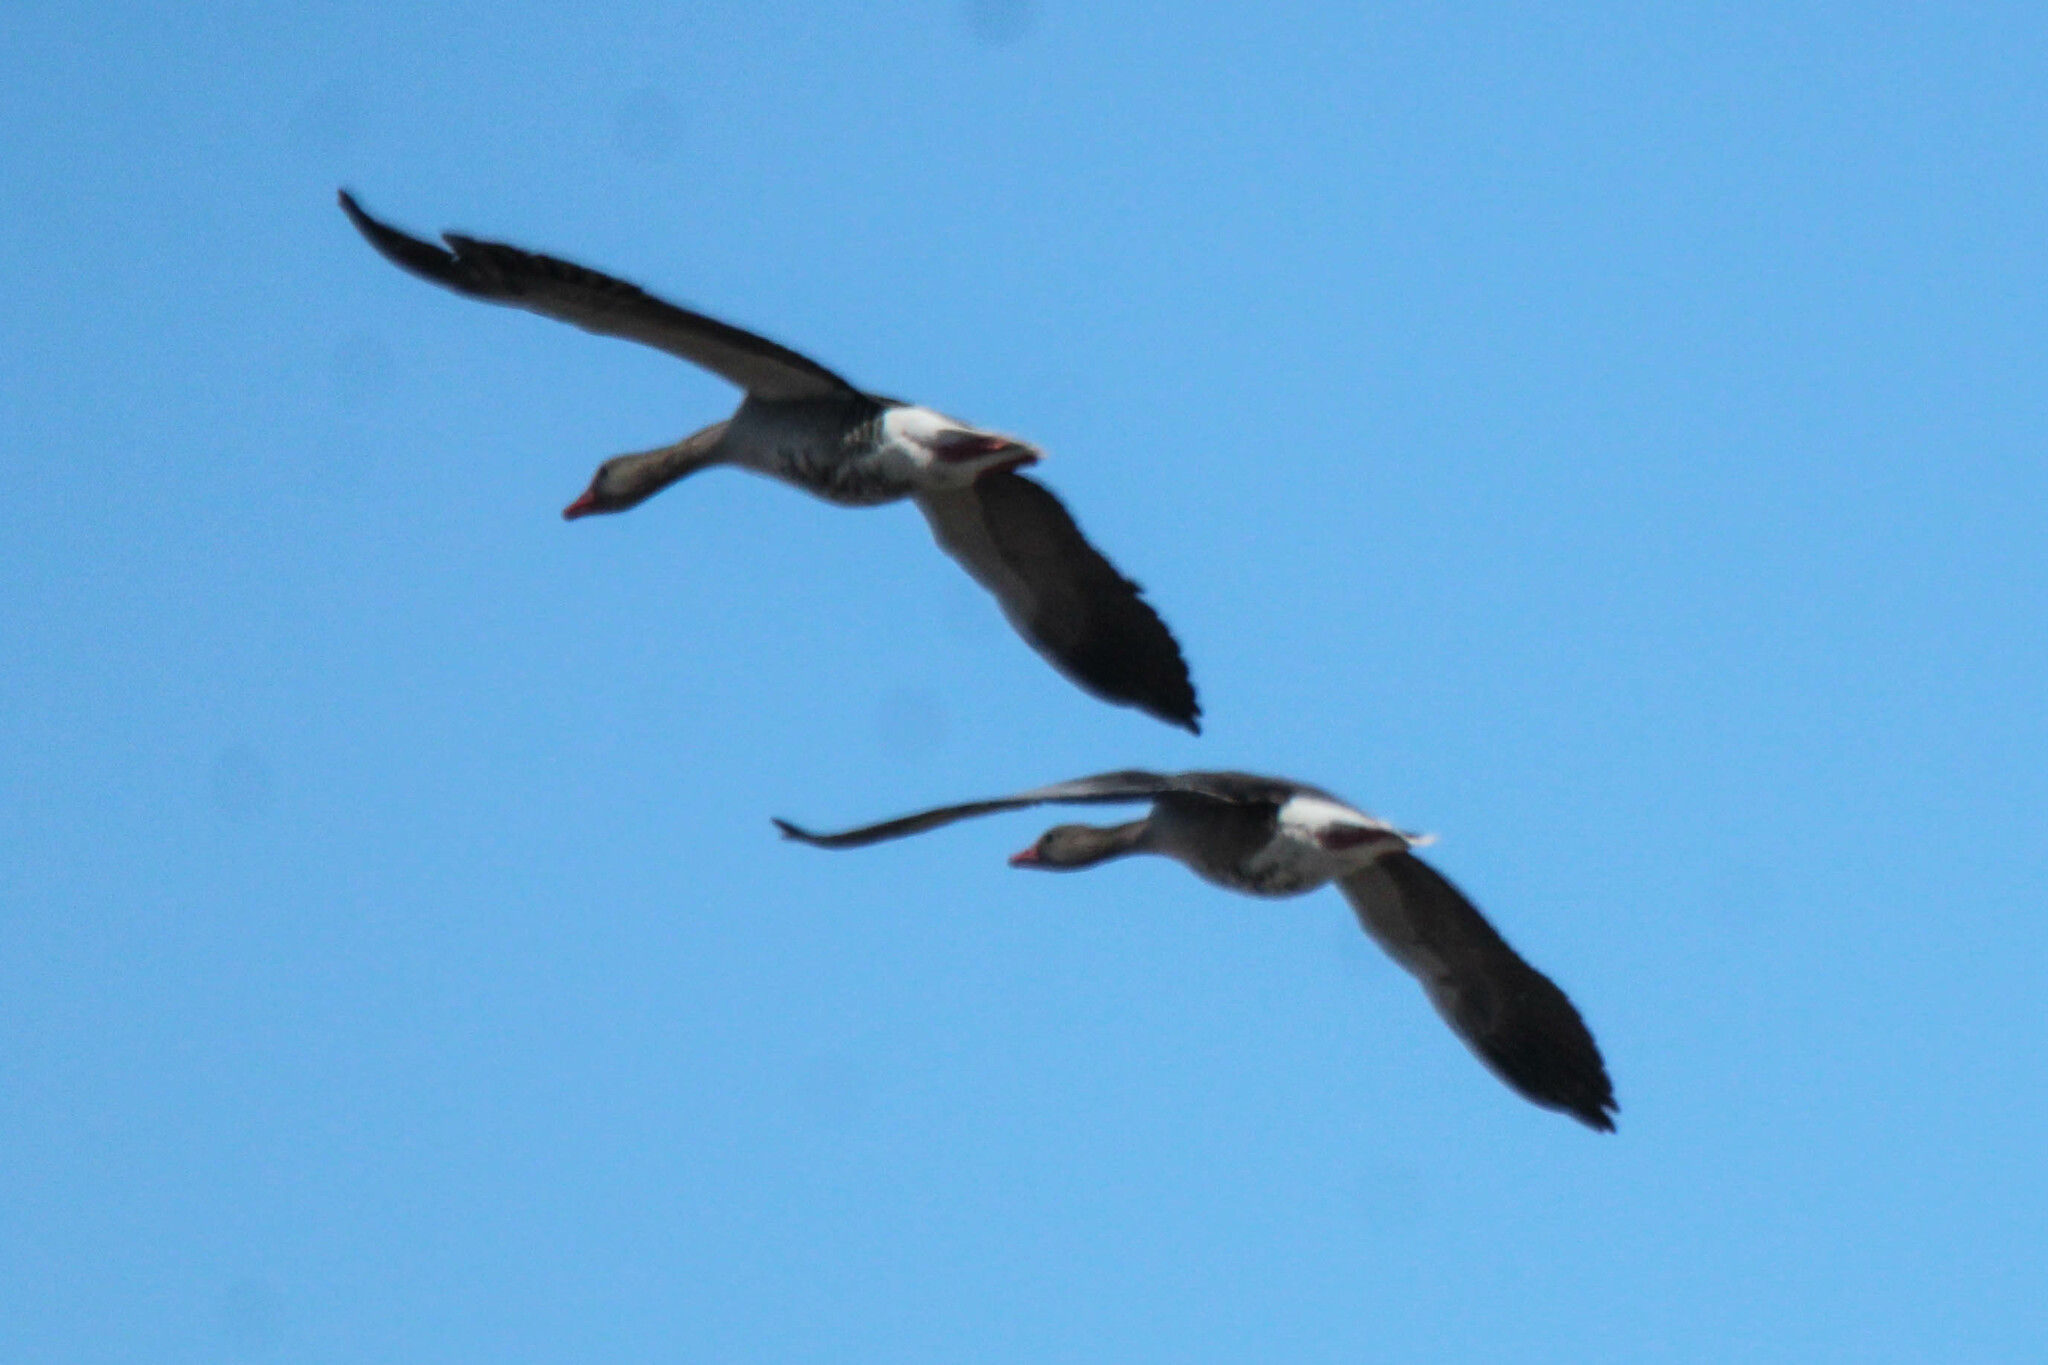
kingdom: Animalia
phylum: Chordata
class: Aves
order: Anseriformes
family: Anatidae
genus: Anser
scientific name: Anser anser
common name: Greylag goose
